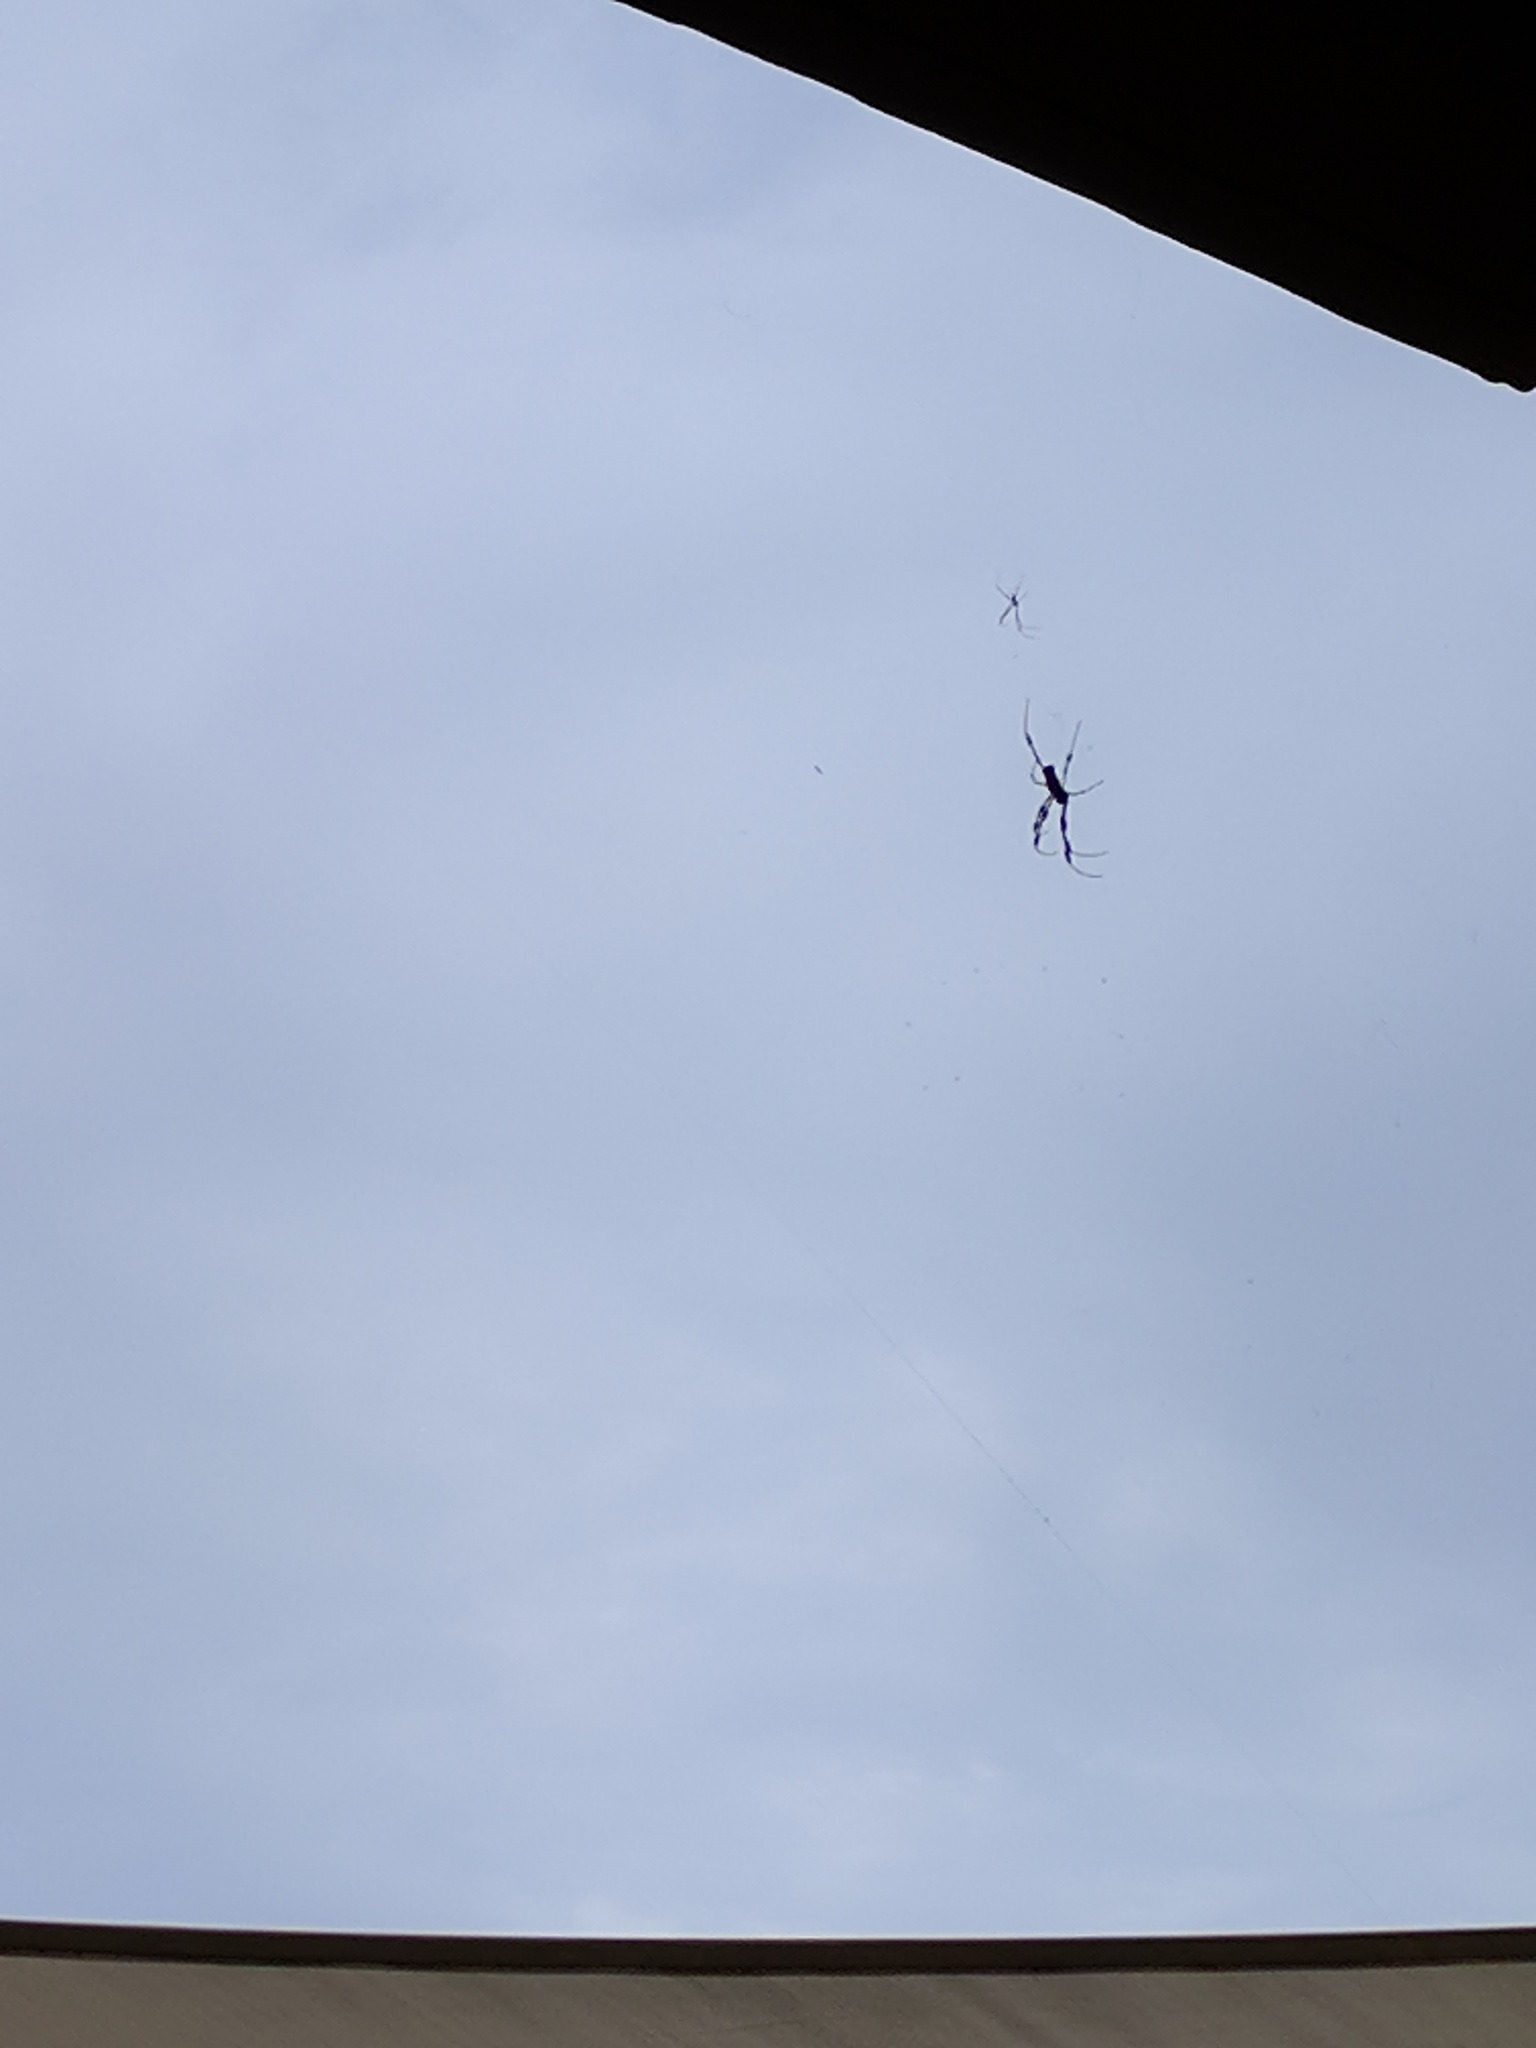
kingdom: Animalia
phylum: Arthropoda
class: Arachnida
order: Araneae
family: Araneidae
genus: Trichonephila
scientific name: Trichonephila clavipes
